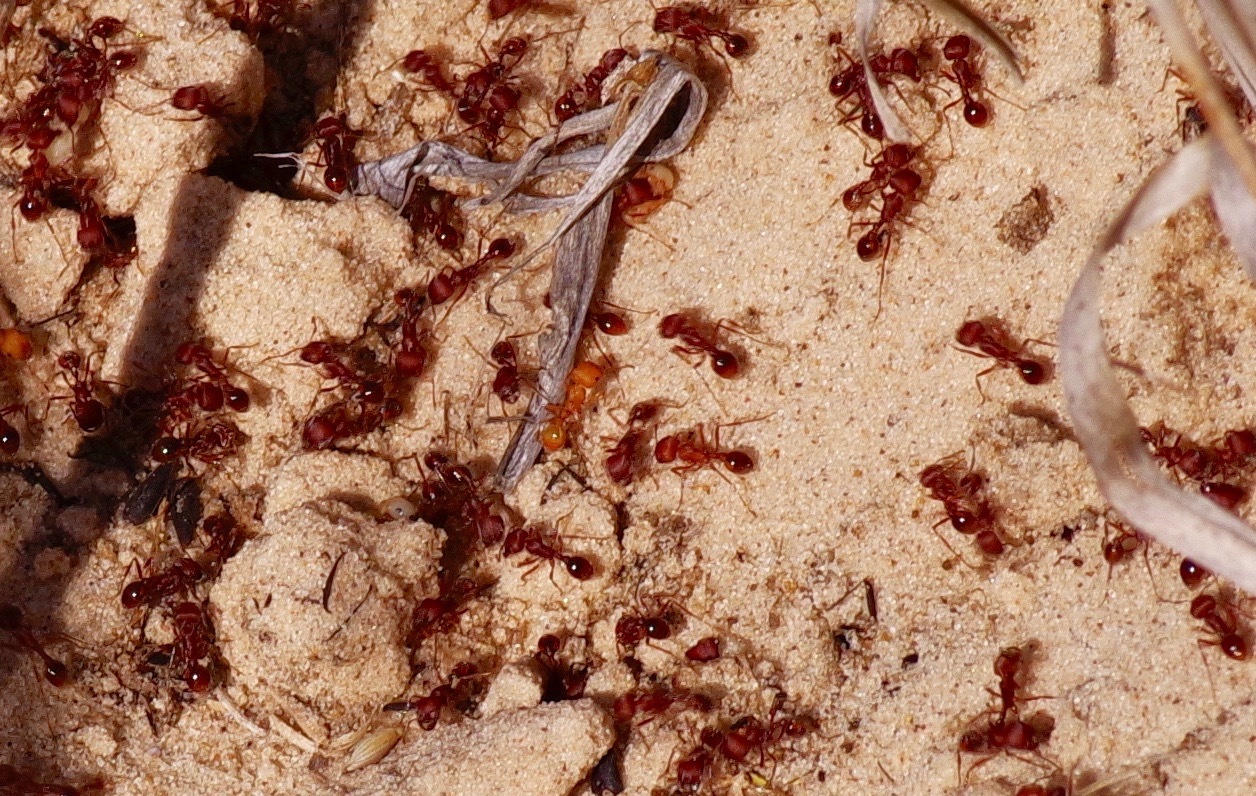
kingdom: Animalia
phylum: Arthropoda
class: Insecta
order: Hymenoptera
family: Formicidae
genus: Pogonomyrmex
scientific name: Pogonomyrmex comanche
